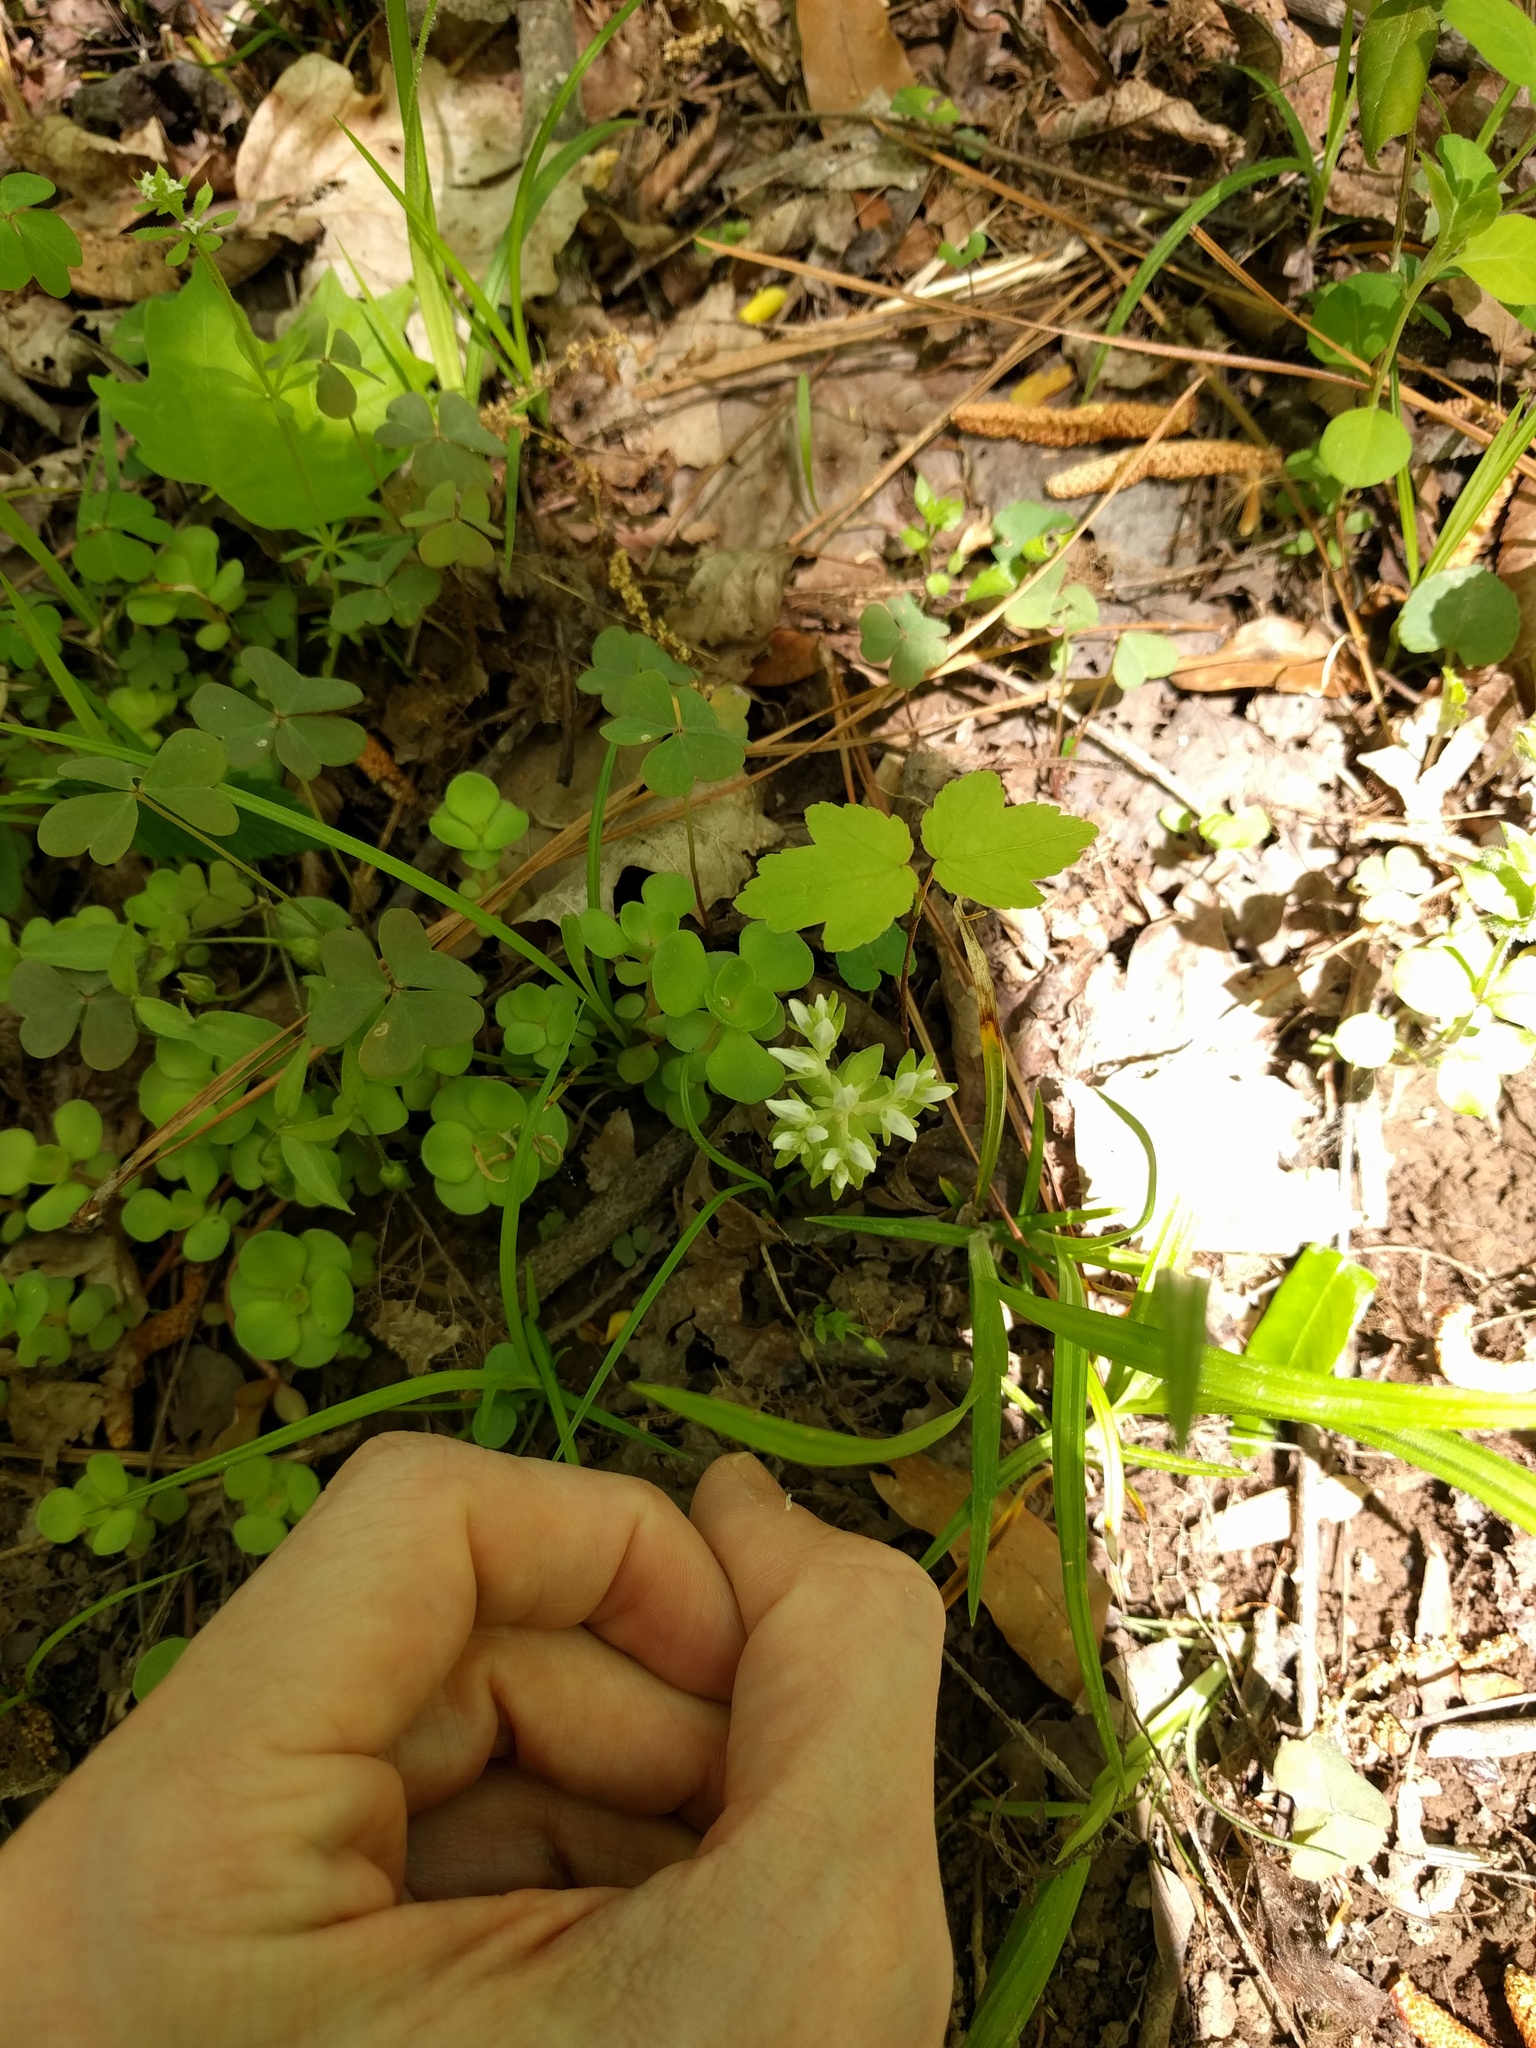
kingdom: Plantae
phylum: Tracheophyta
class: Magnoliopsida
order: Saxifragales
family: Crassulaceae
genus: Sedum
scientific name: Sedum ternatum
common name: Wild stonecrop
